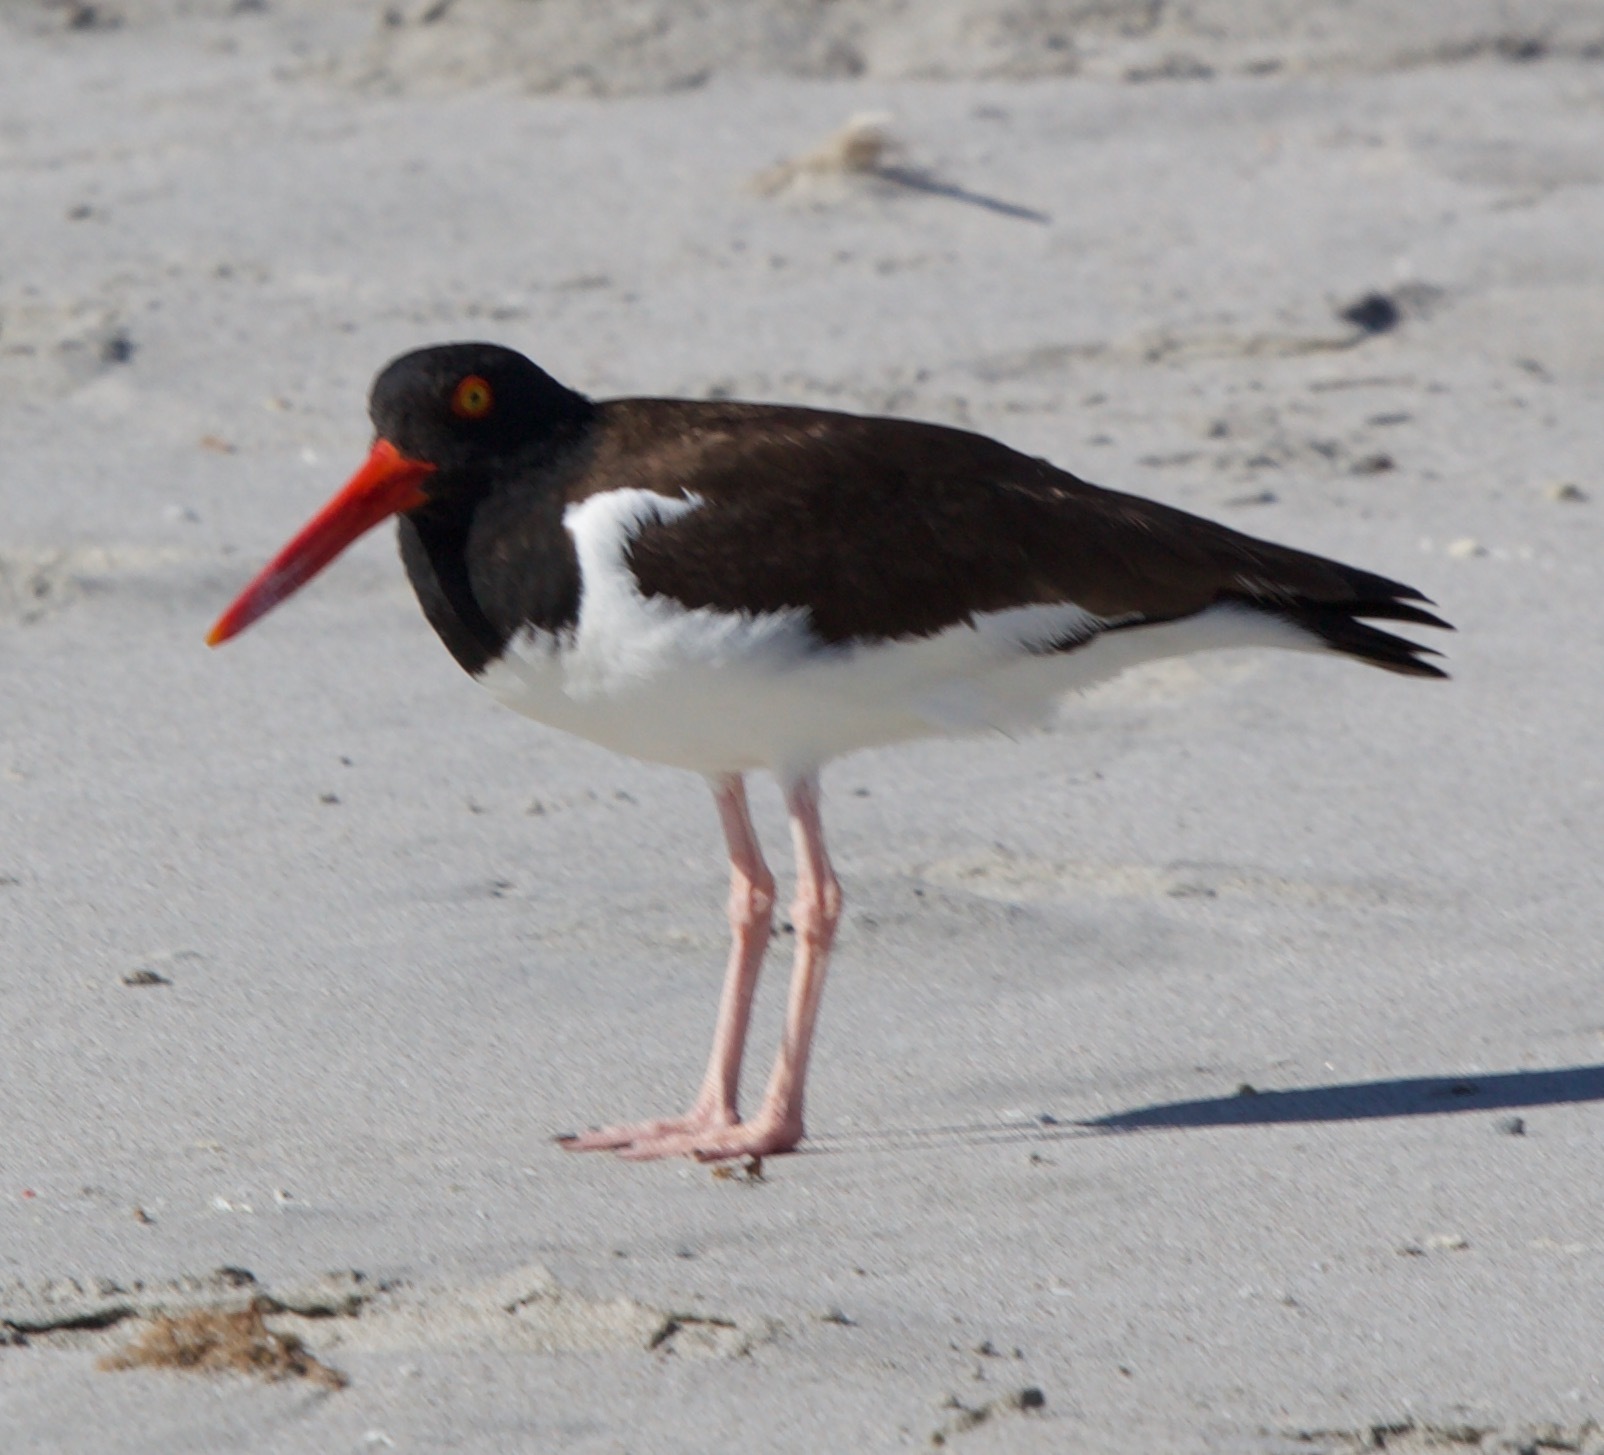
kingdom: Animalia
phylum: Chordata
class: Aves
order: Charadriiformes
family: Haematopodidae
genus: Haematopus
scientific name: Haematopus palliatus
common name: American oystercatcher
